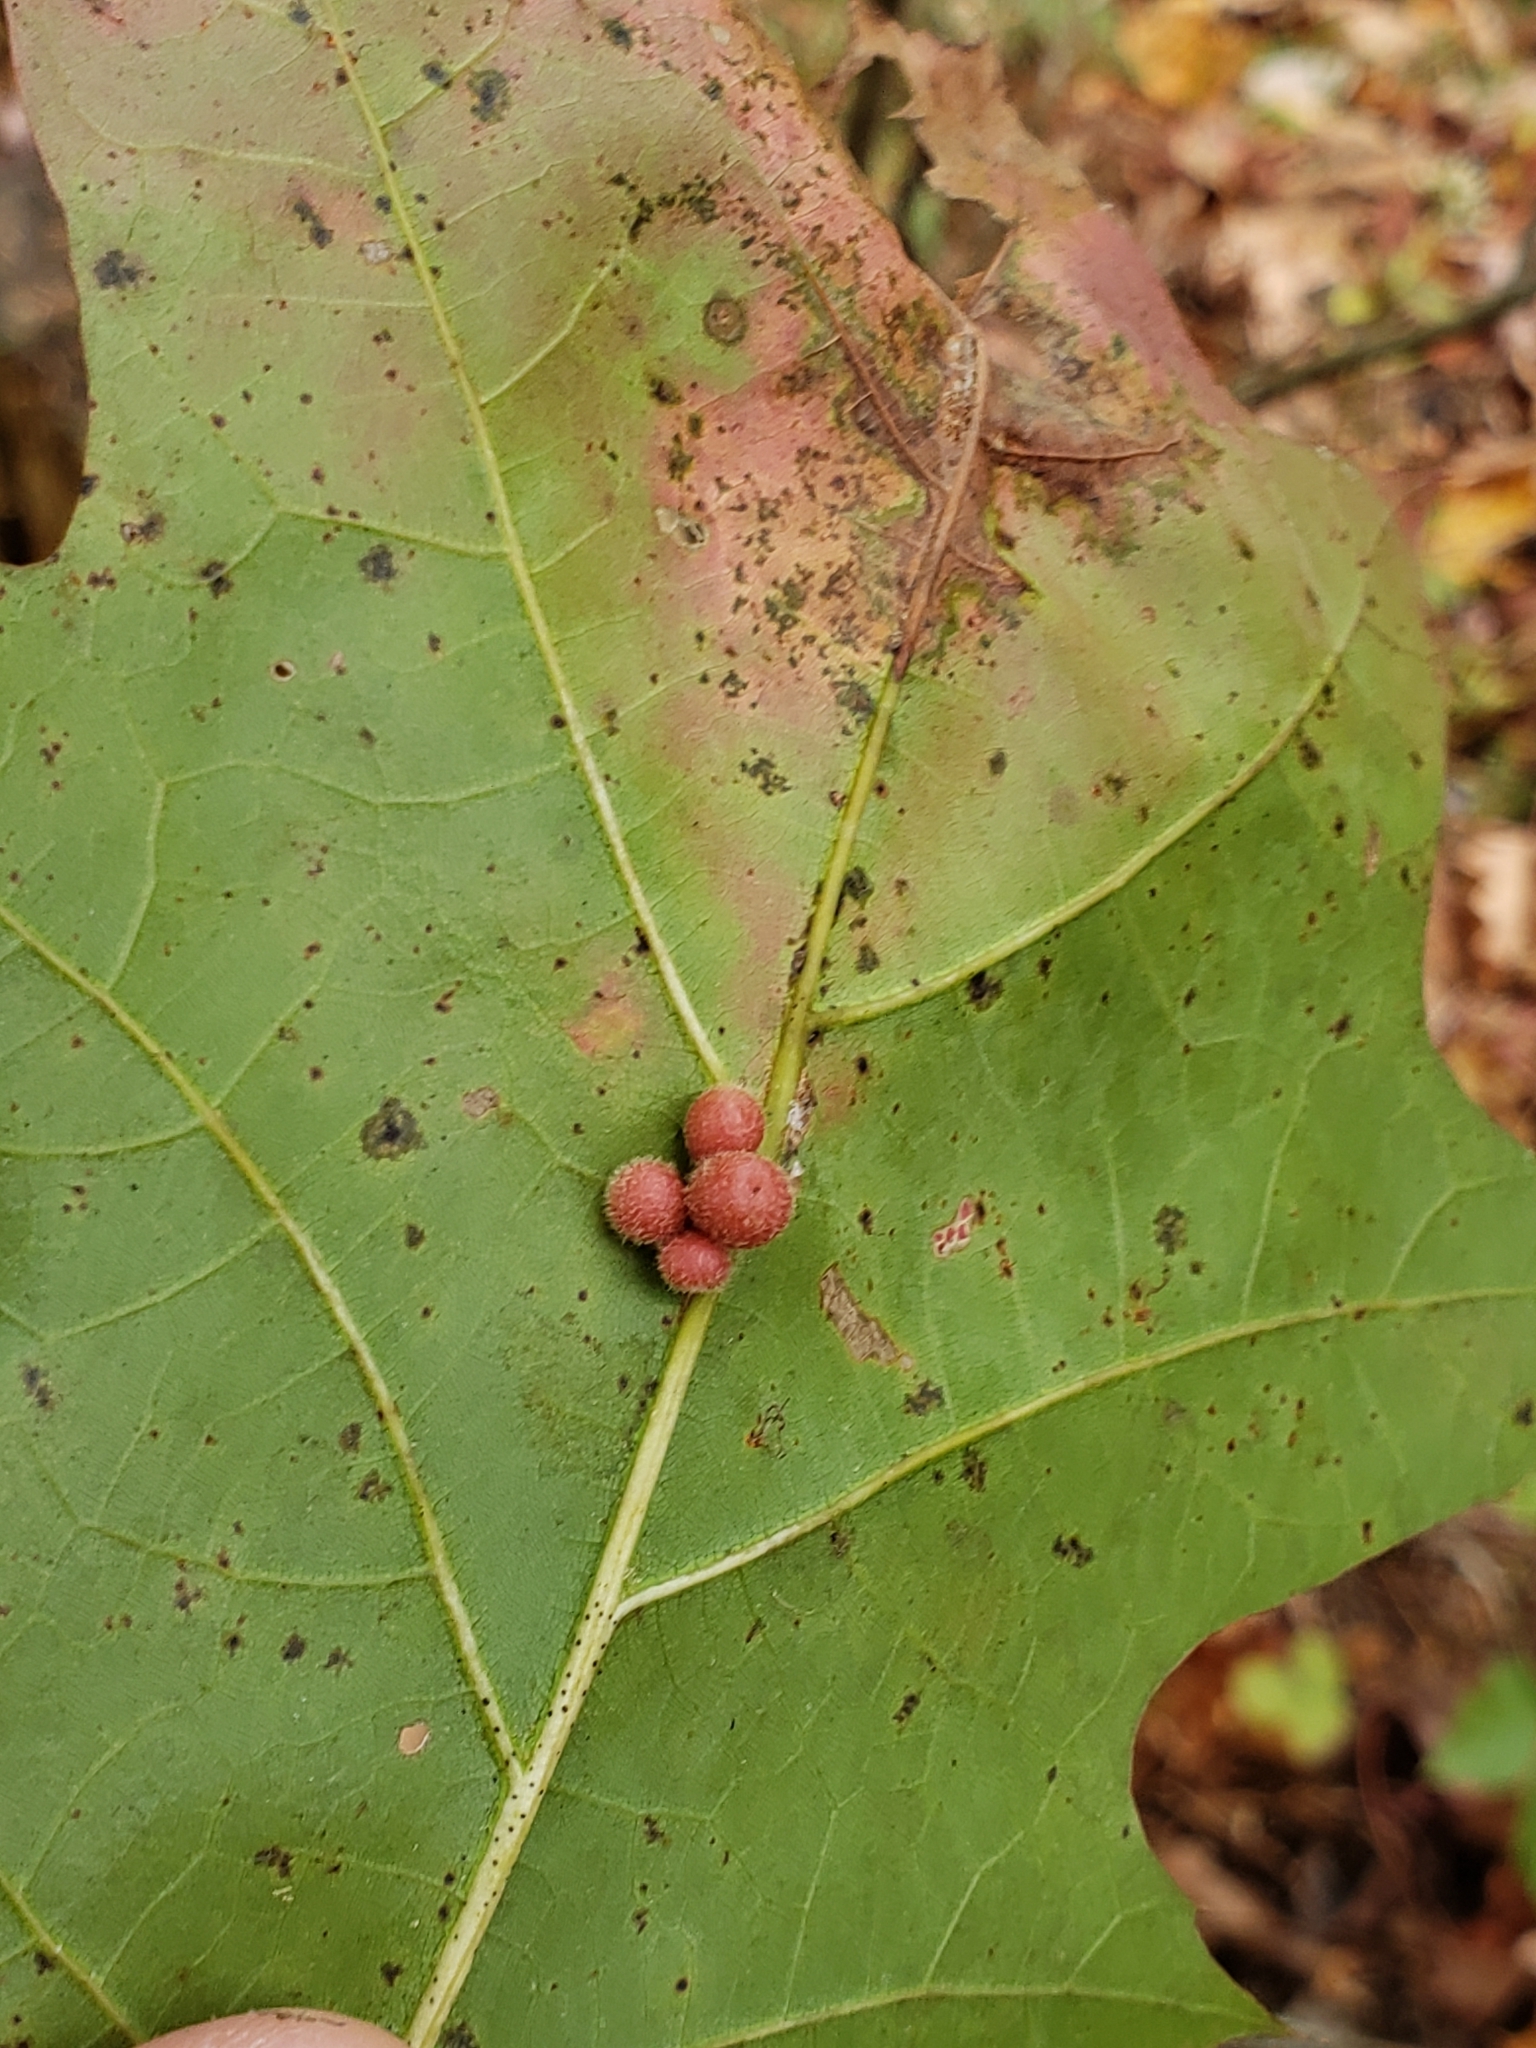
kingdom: Animalia
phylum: Arthropoda
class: Insecta
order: Hymenoptera
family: Cynipidae
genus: Callirhytis
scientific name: Callirhytis
